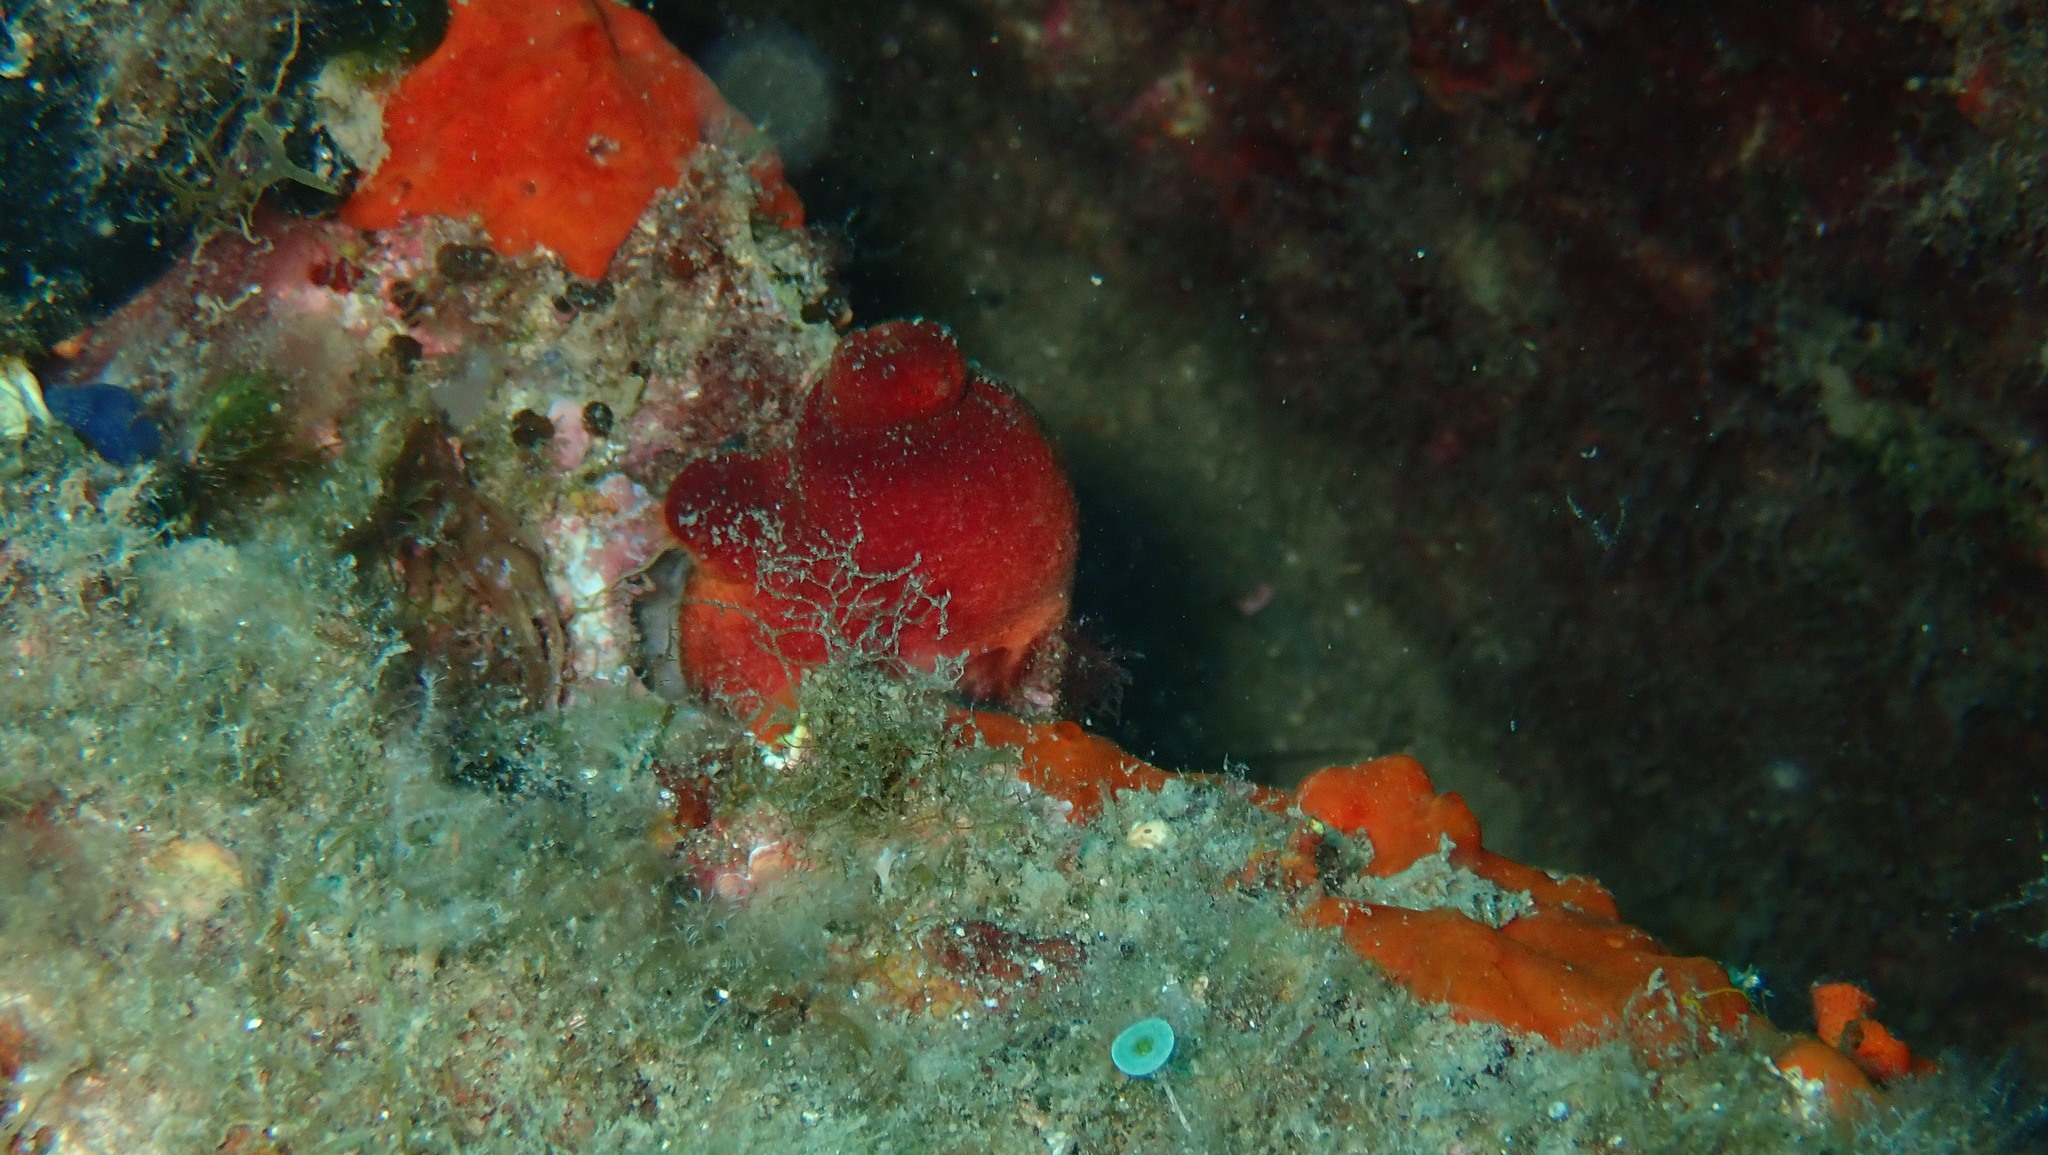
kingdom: Animalia
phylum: Chordata
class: Ascidiacea
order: Stolidobranchia
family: Pyuridae
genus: Halocynthia
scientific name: Halocynthia papillosa
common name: Red sea-squirt
